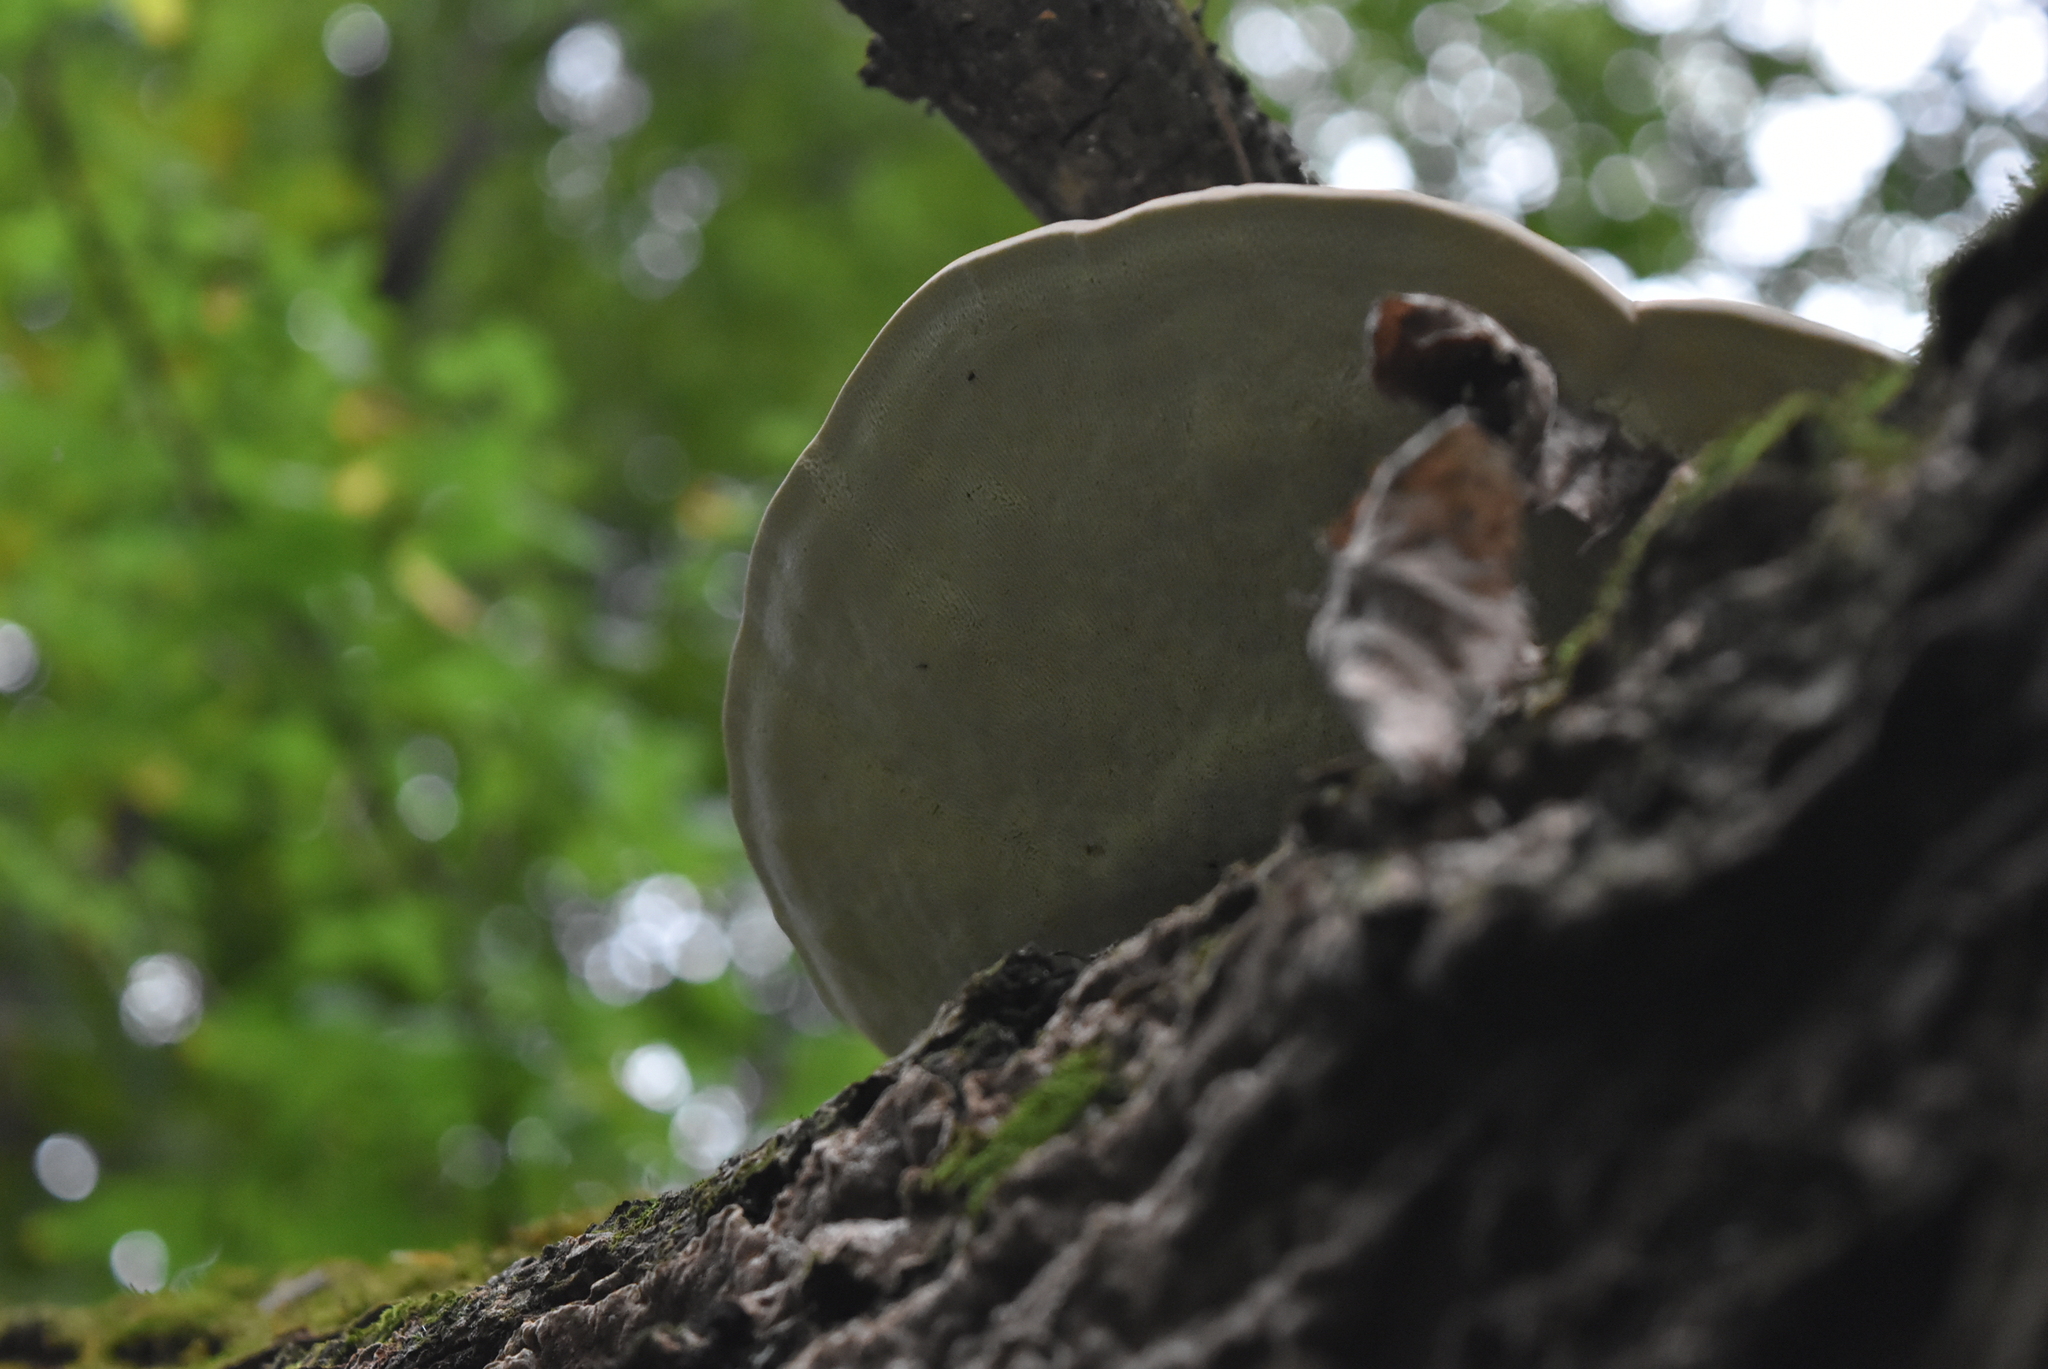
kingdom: Fungi
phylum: Basidiomycota
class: Agaricomycetes
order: Polyporales
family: Polyporaceae
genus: Trametes
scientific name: Trametes gibbosa
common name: Lumpy bracket
